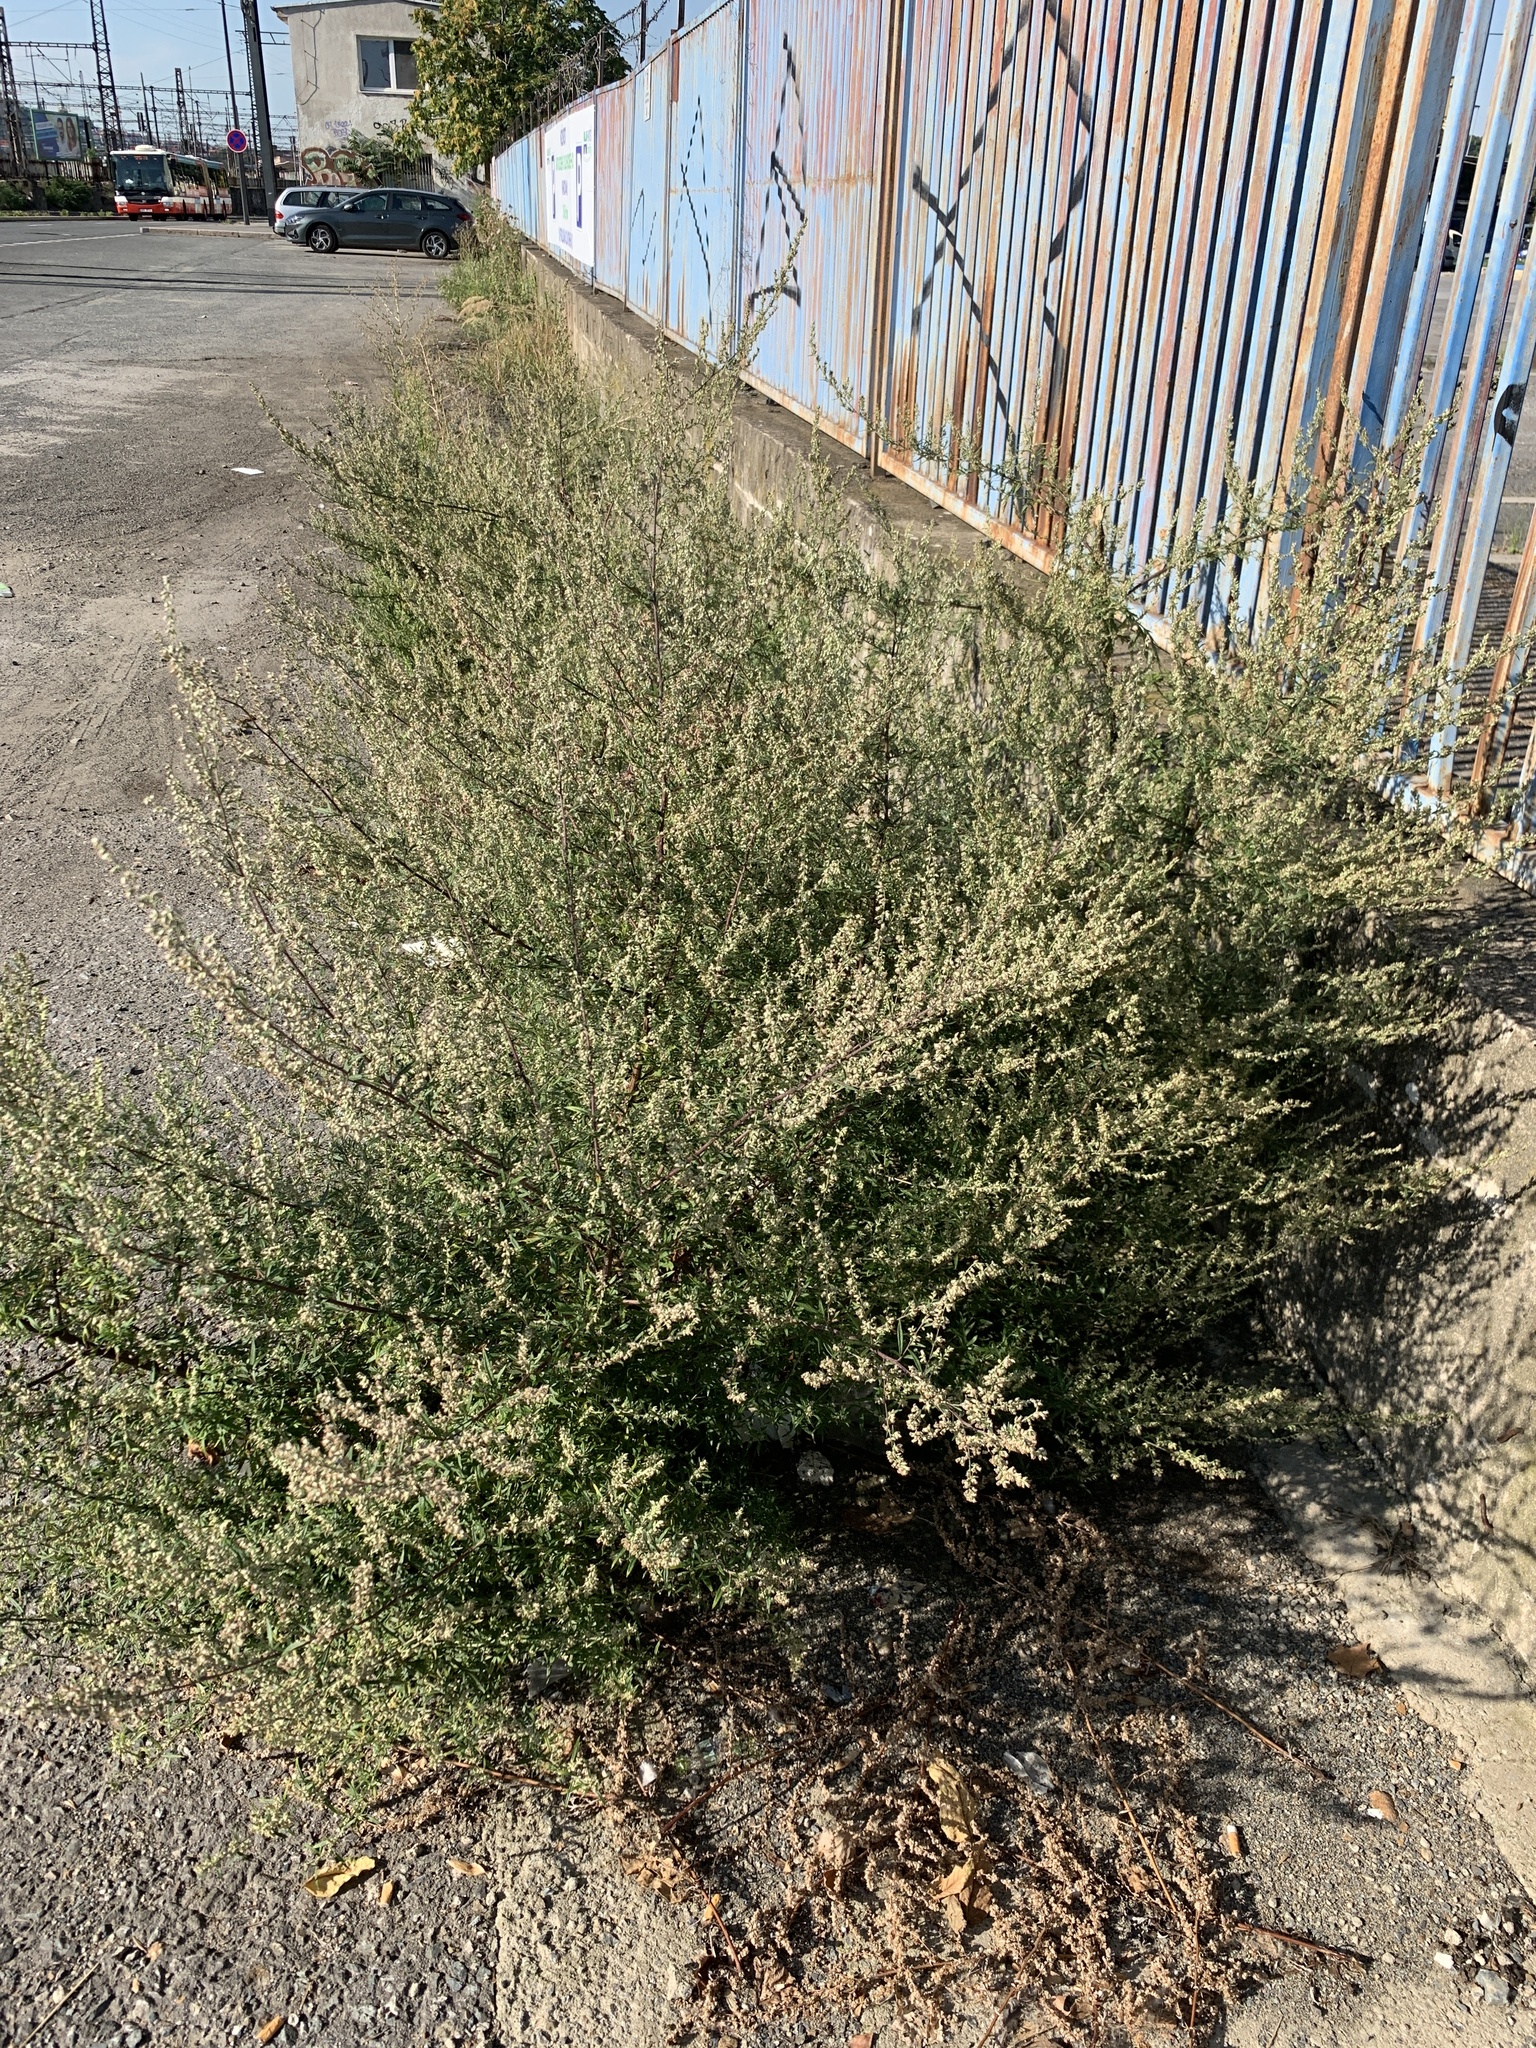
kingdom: Plantae
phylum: Tracheophyta
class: Magnoliopsida
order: Asterales
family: Asteraceae
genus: Artemisia
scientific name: Artemisia vulgaris
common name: Mugwort
